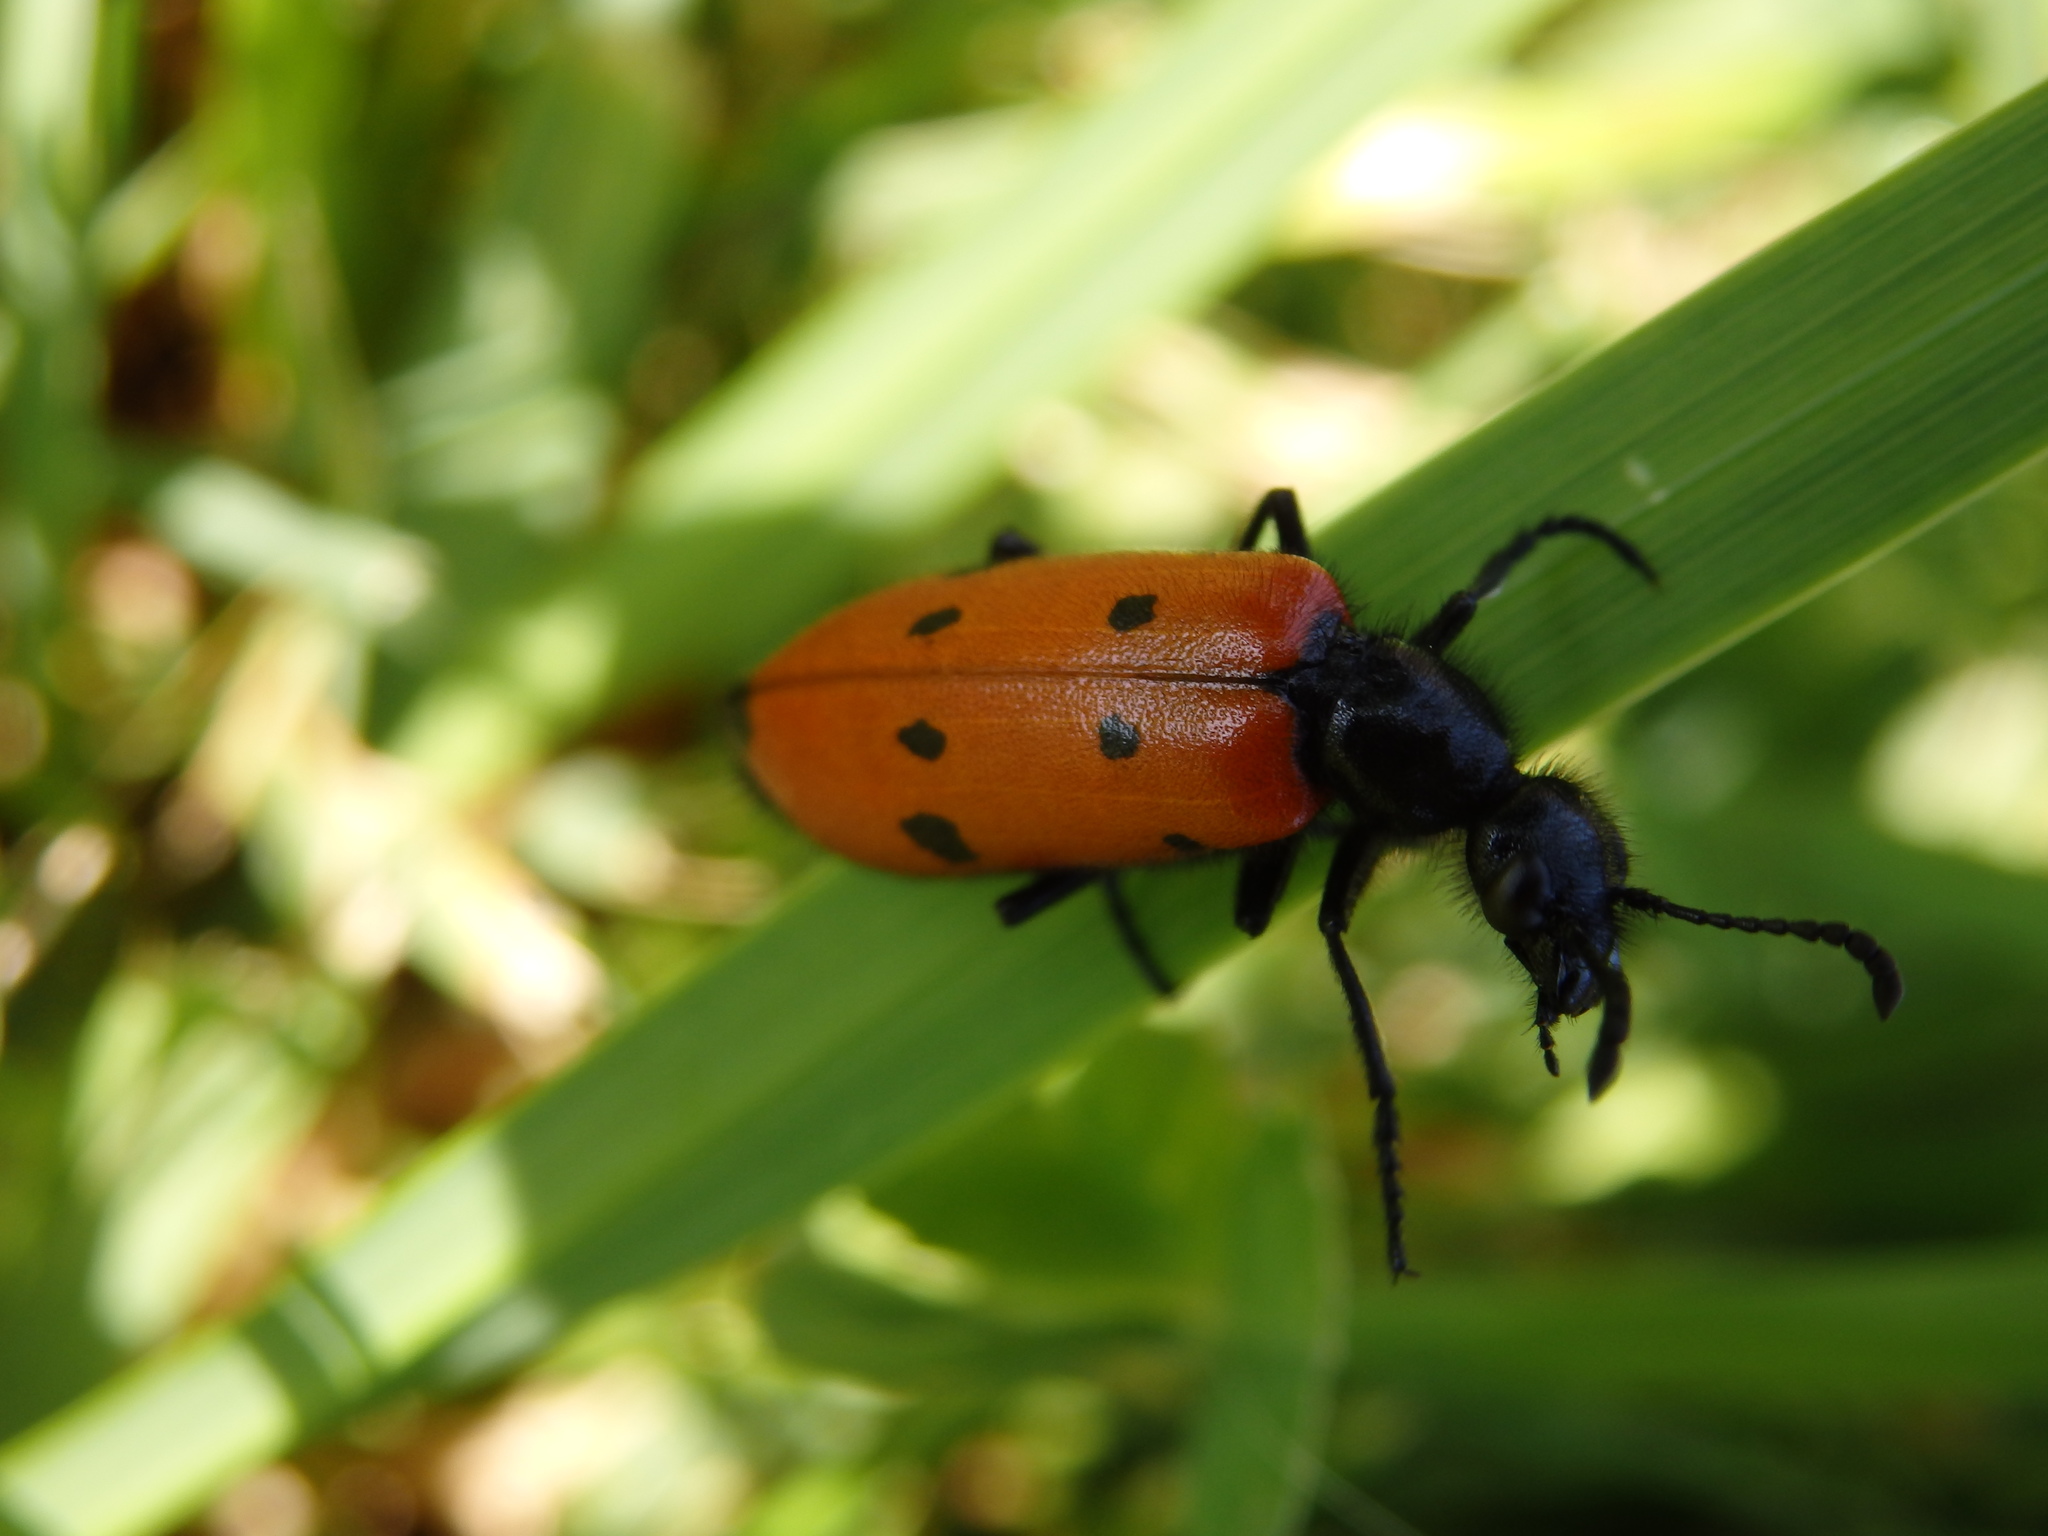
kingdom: Animalia
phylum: Arthropoda
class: Insecta
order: Coleoptera
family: Meloidae
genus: Mylabris
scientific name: Mylabris quadripunctata
